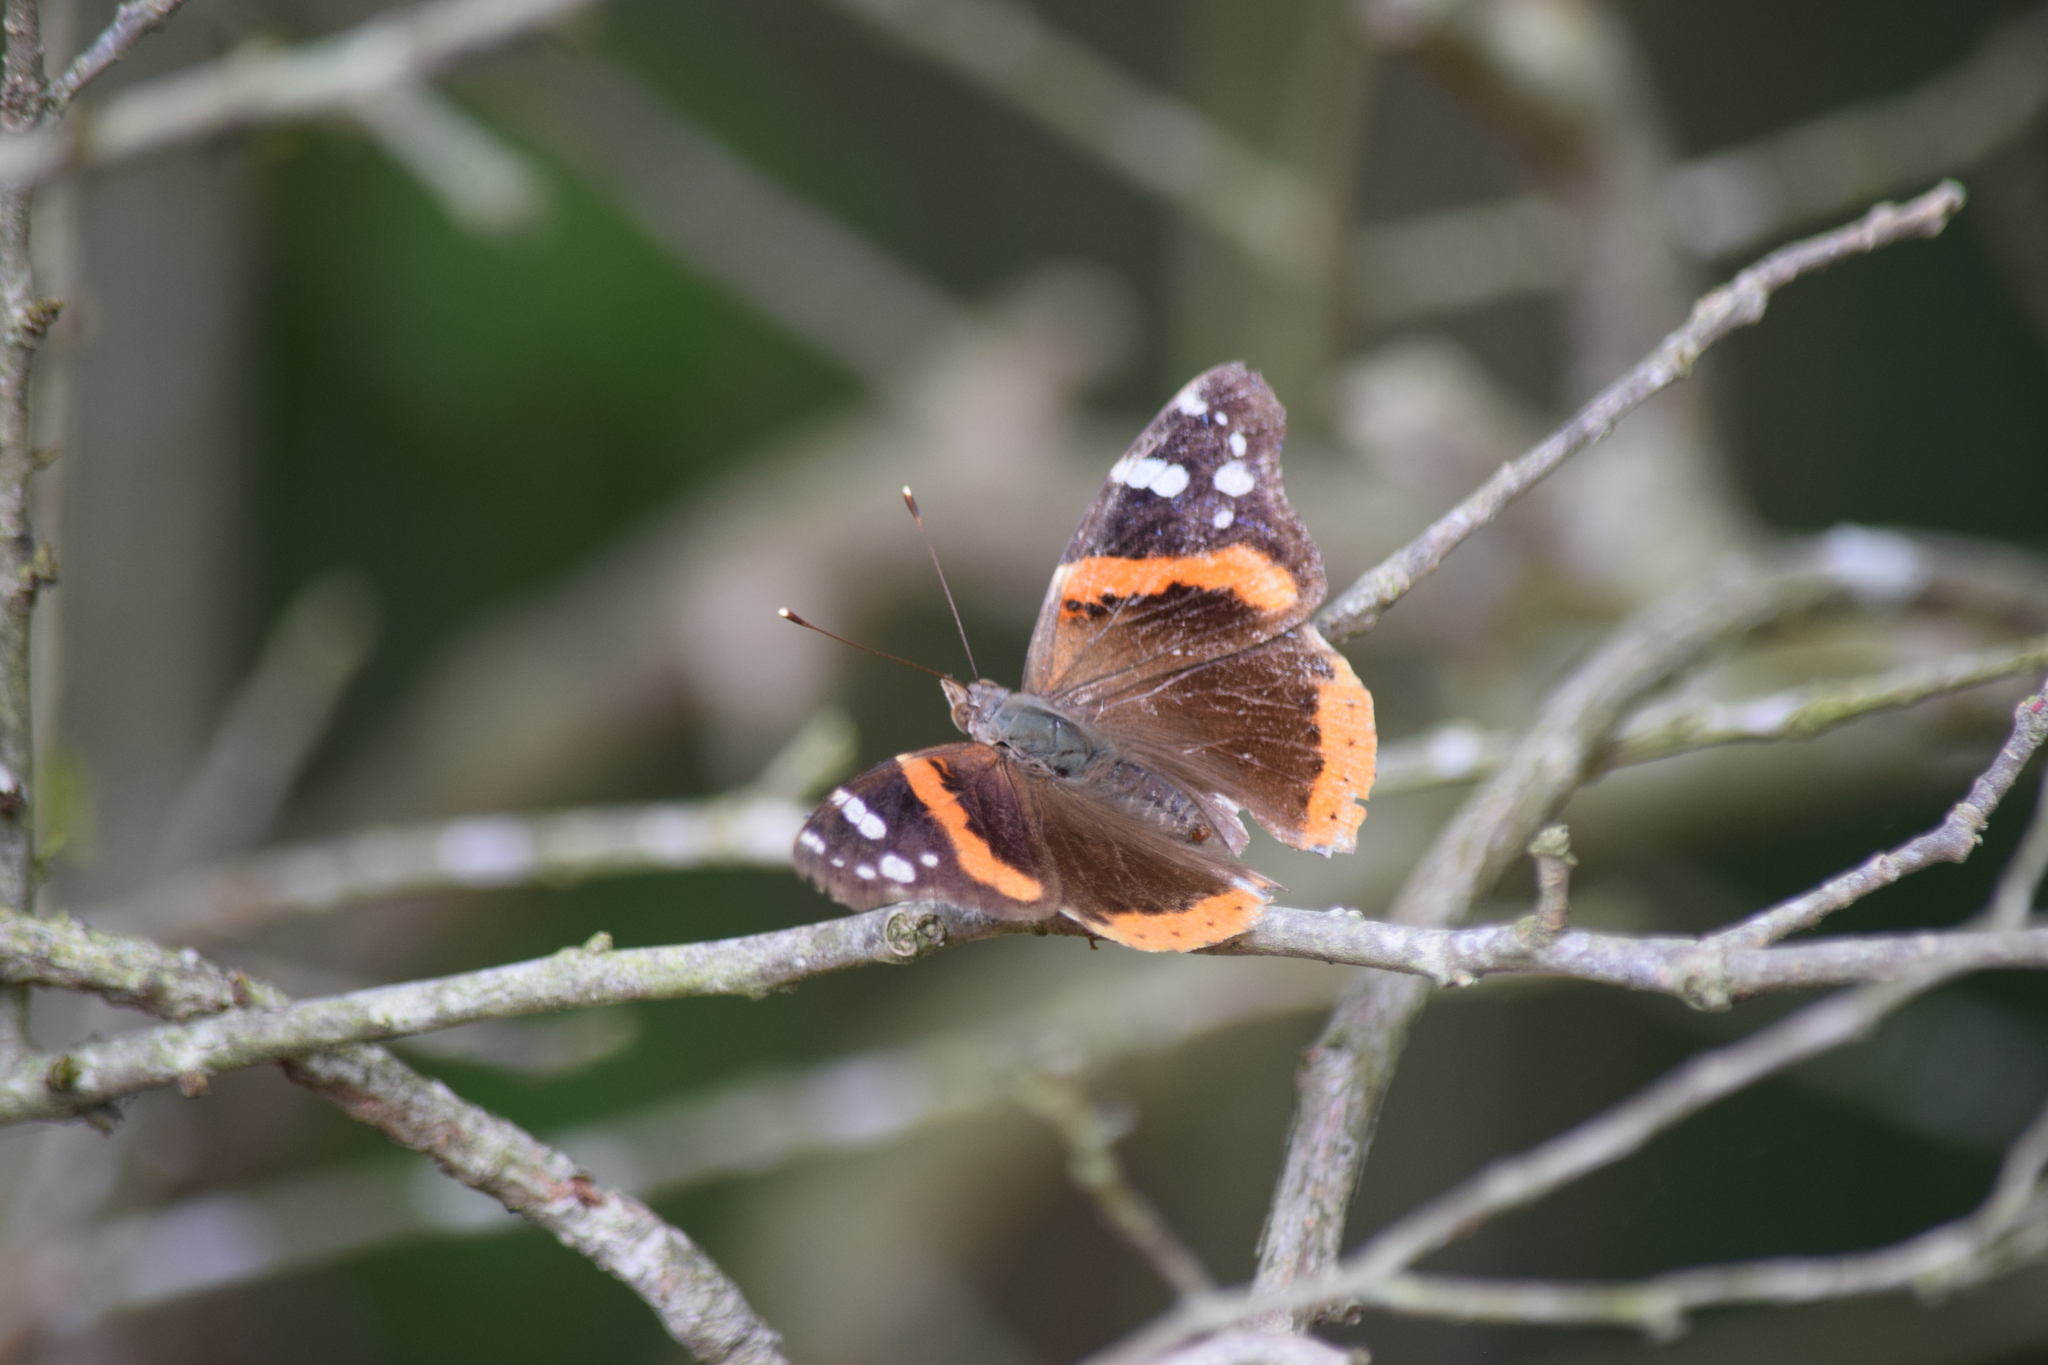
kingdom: Animalia
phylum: Arthropoda
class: Insecta
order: Lepidoptera
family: Nymphalidae
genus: Vanessa
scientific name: Vanessa atalanta
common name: Red admiral
